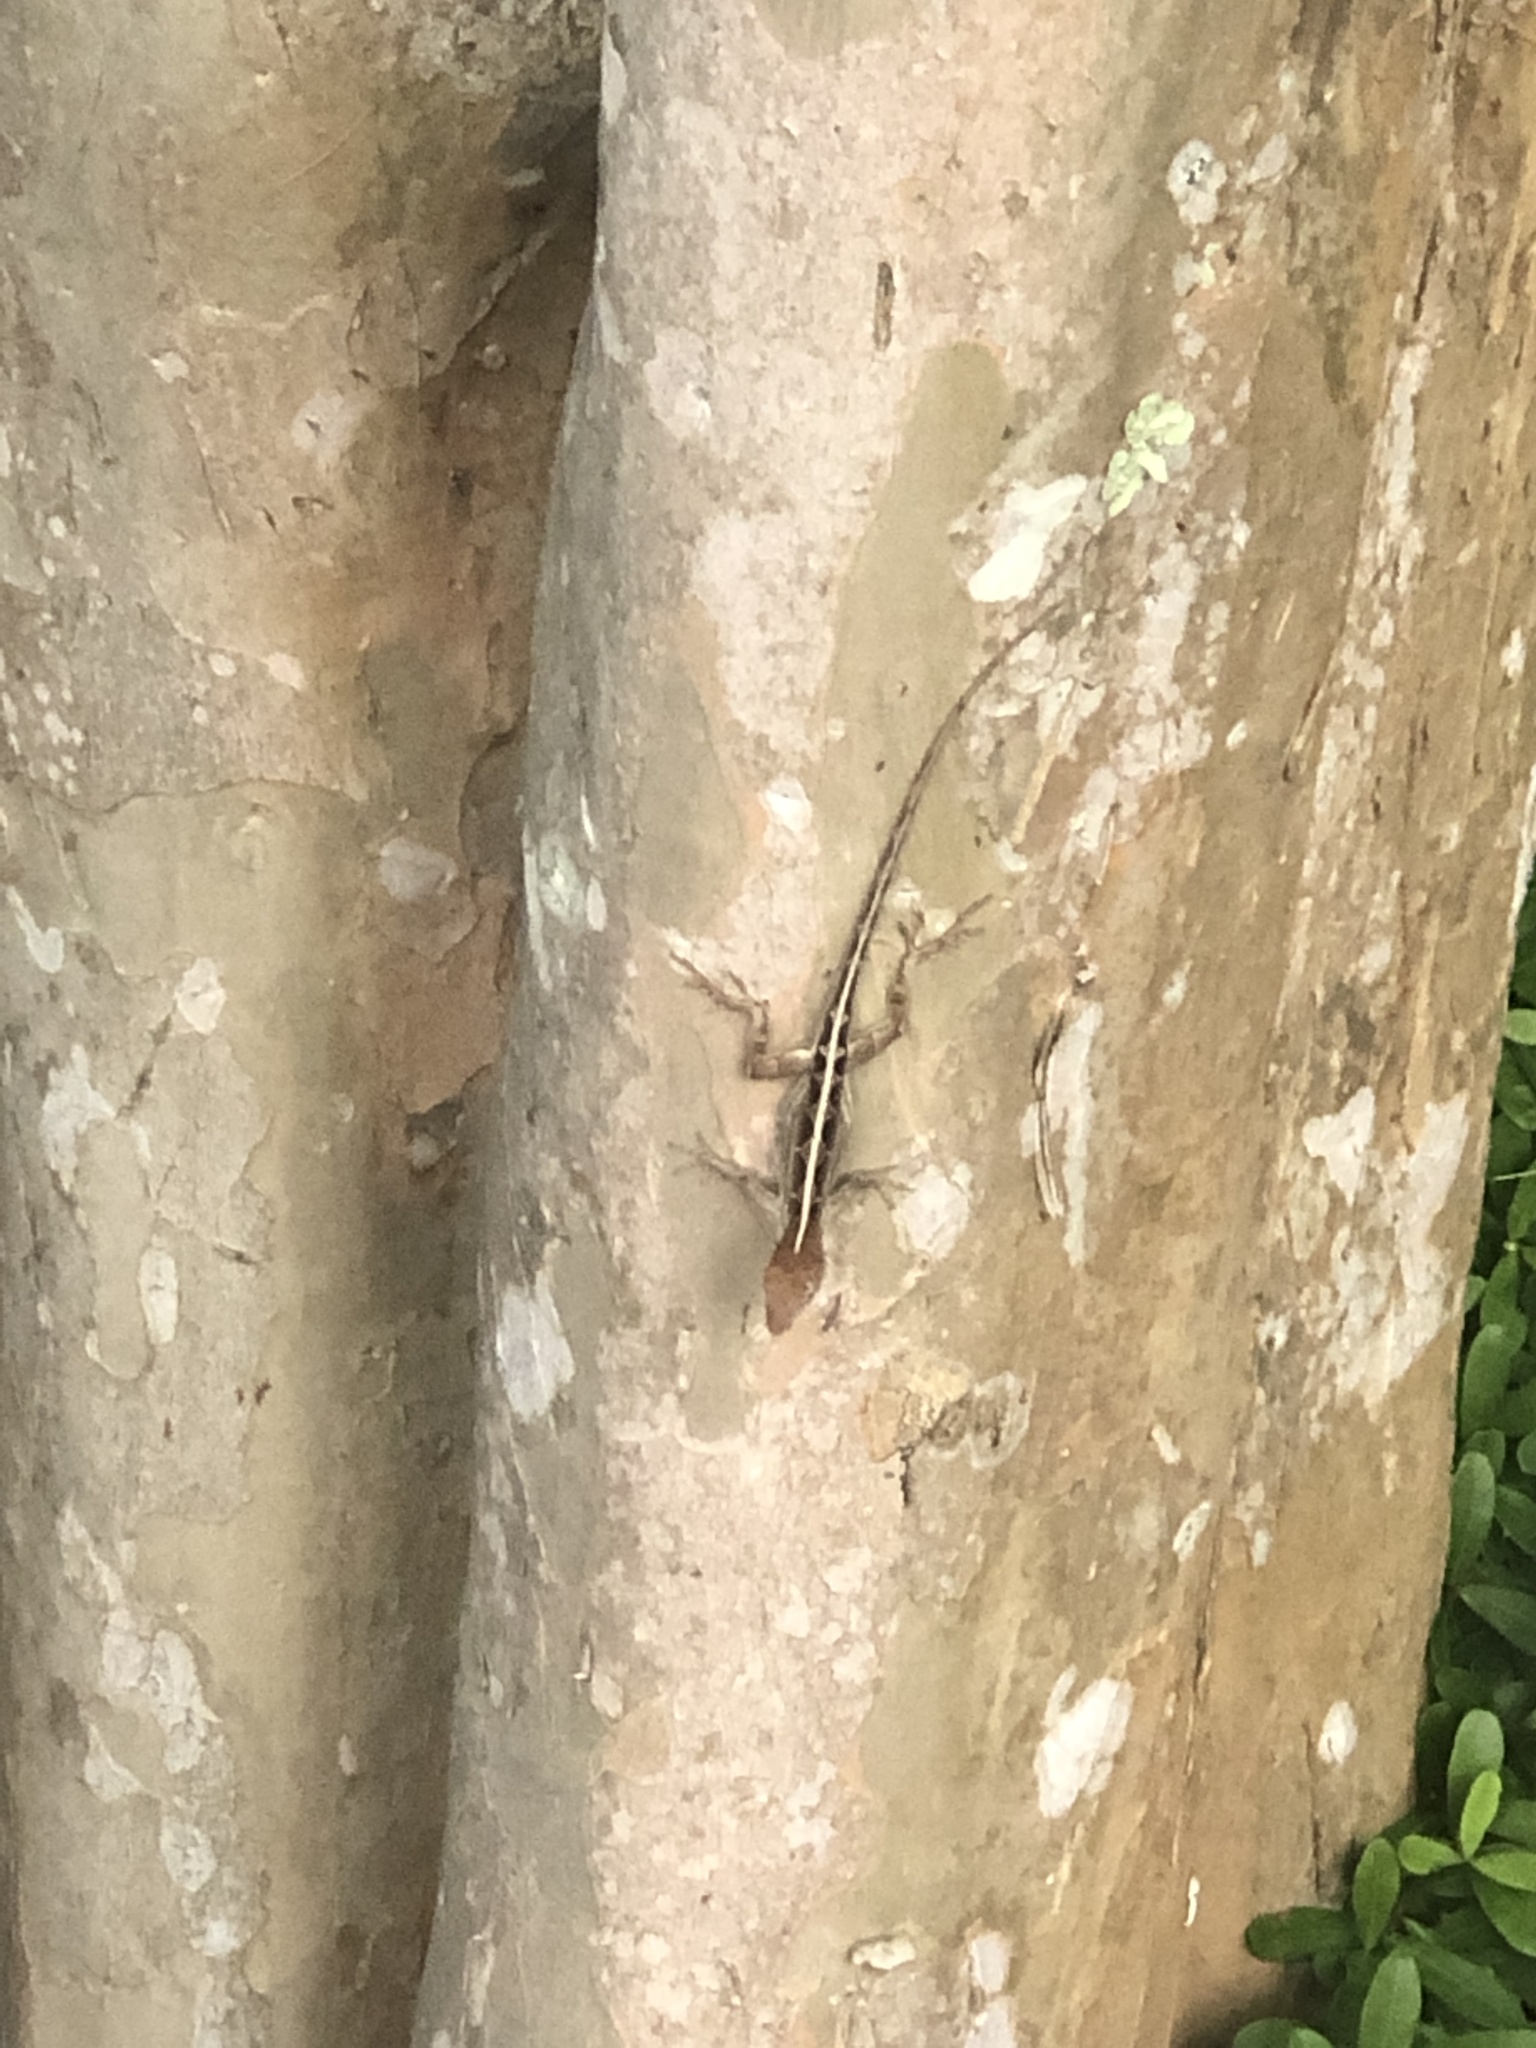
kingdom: Animalia
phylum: Chordata
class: Squamata
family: Dactyloidae
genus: Anolis
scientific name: Anolis sagrei
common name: Brown anole
